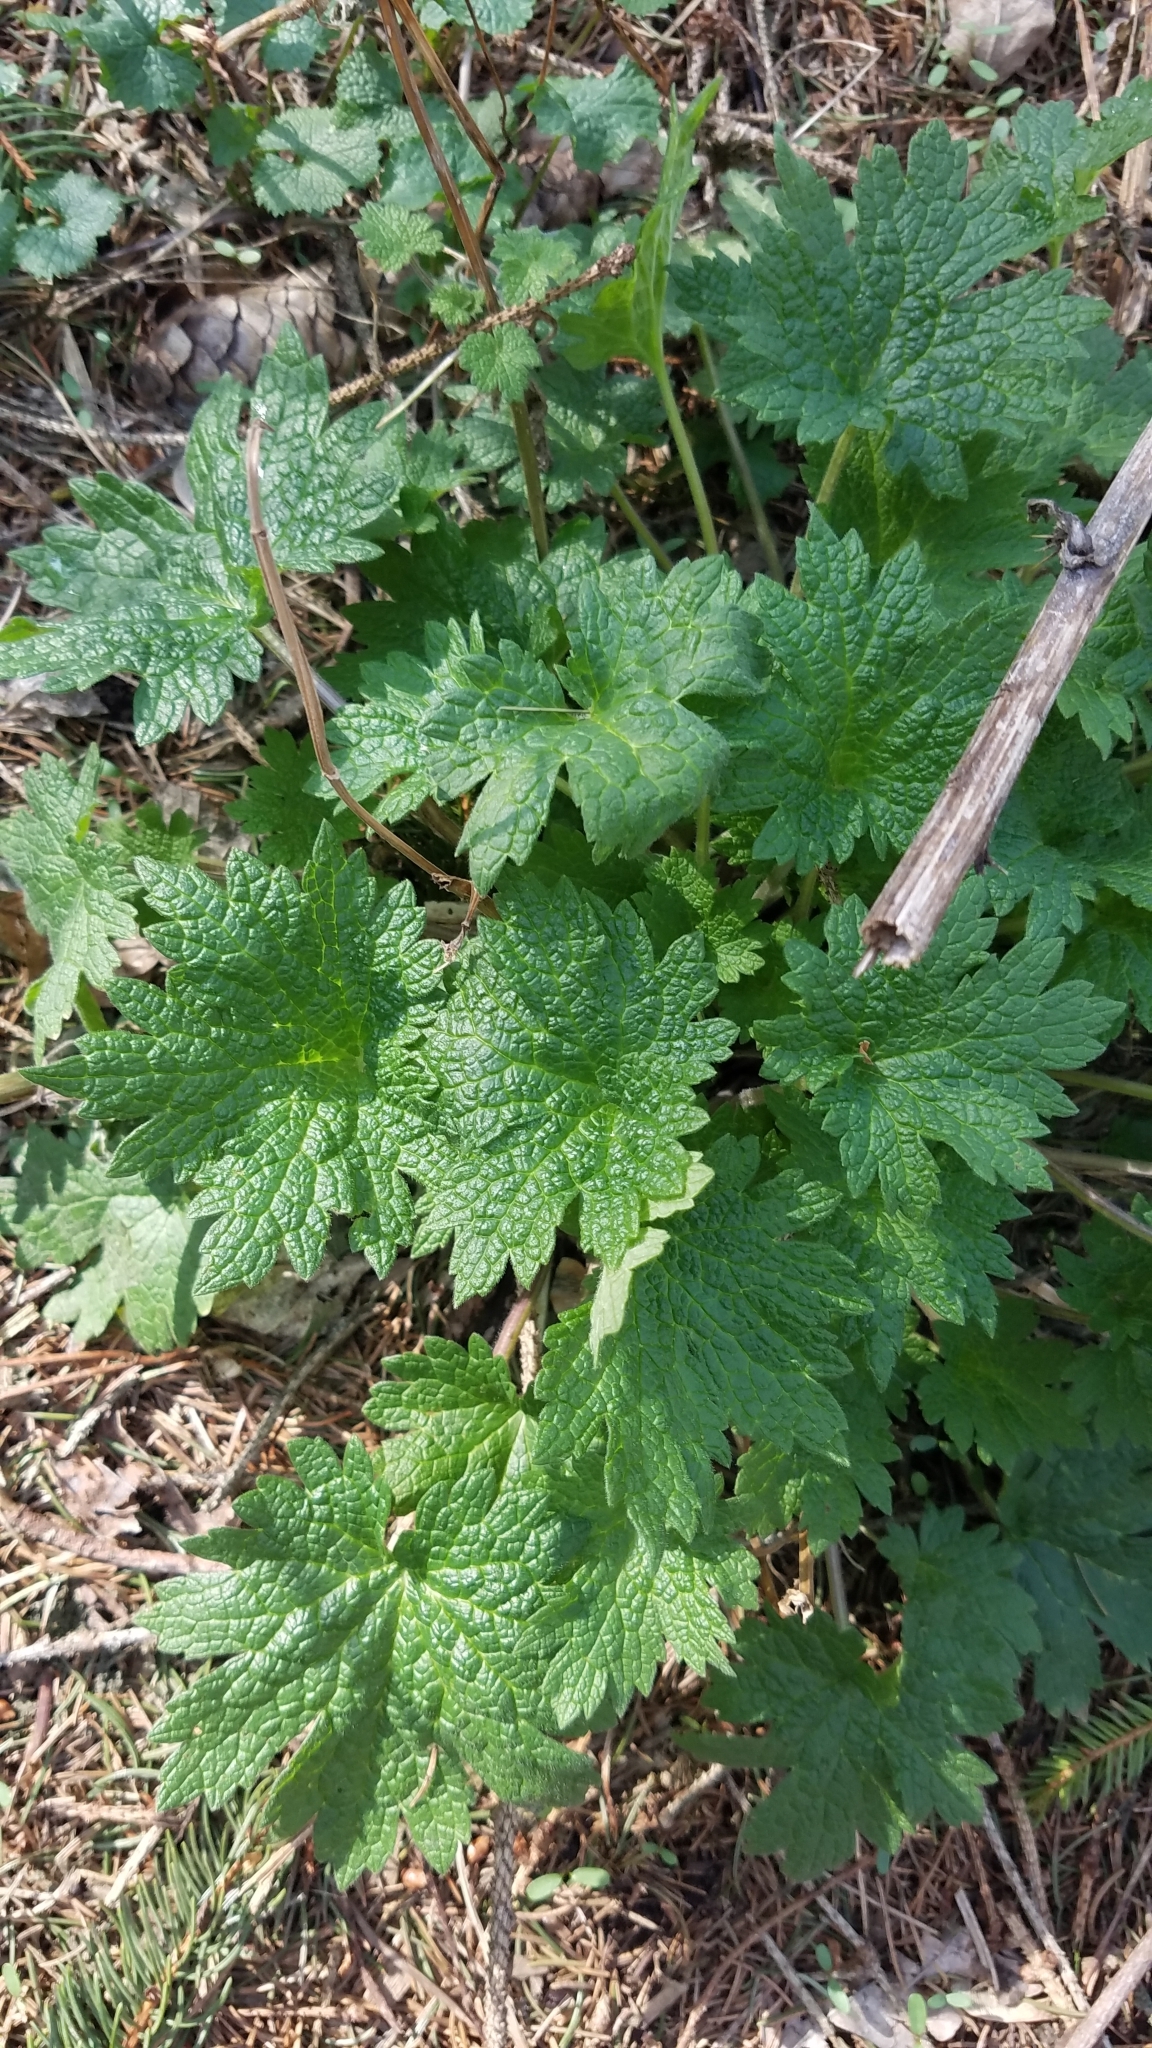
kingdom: Plantae
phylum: Tracheophyta
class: Magnoliopsida
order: Lamiales
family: Lamiaceae
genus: Leonurus
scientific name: Leonurus cardiaca
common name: Motherwort
